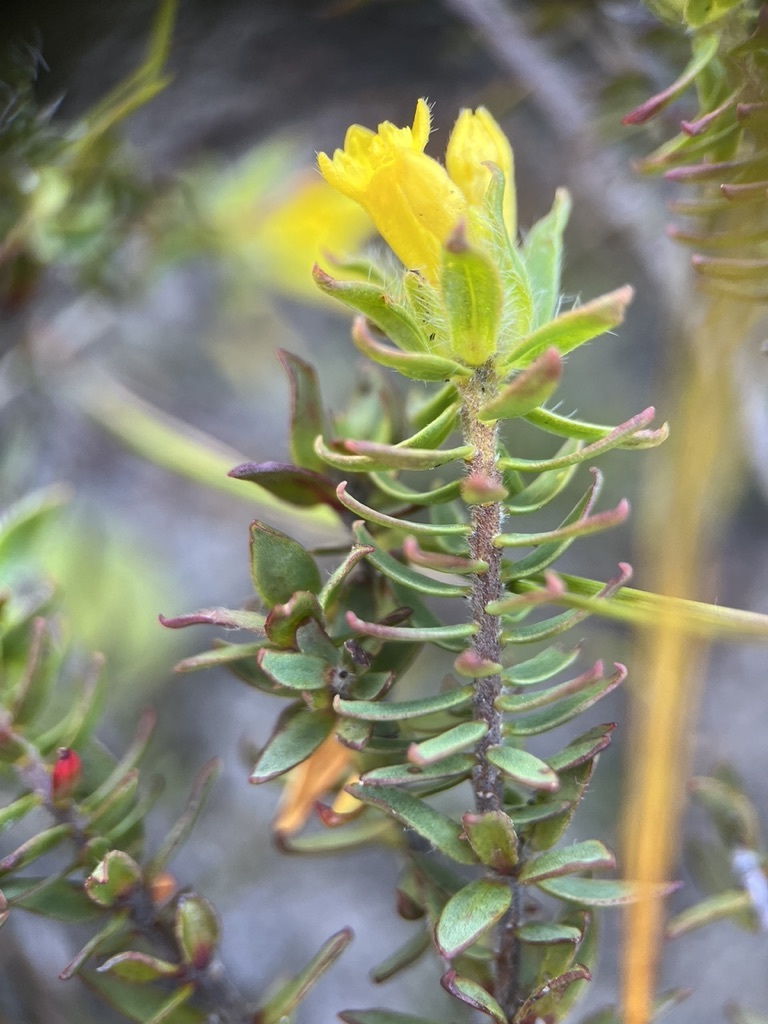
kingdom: Plantae
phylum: Tracheophyta
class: Magnoliopsida
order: Malvales
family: Thymelaeaceae
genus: Gnidia
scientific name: Gnidia juniperifolia
